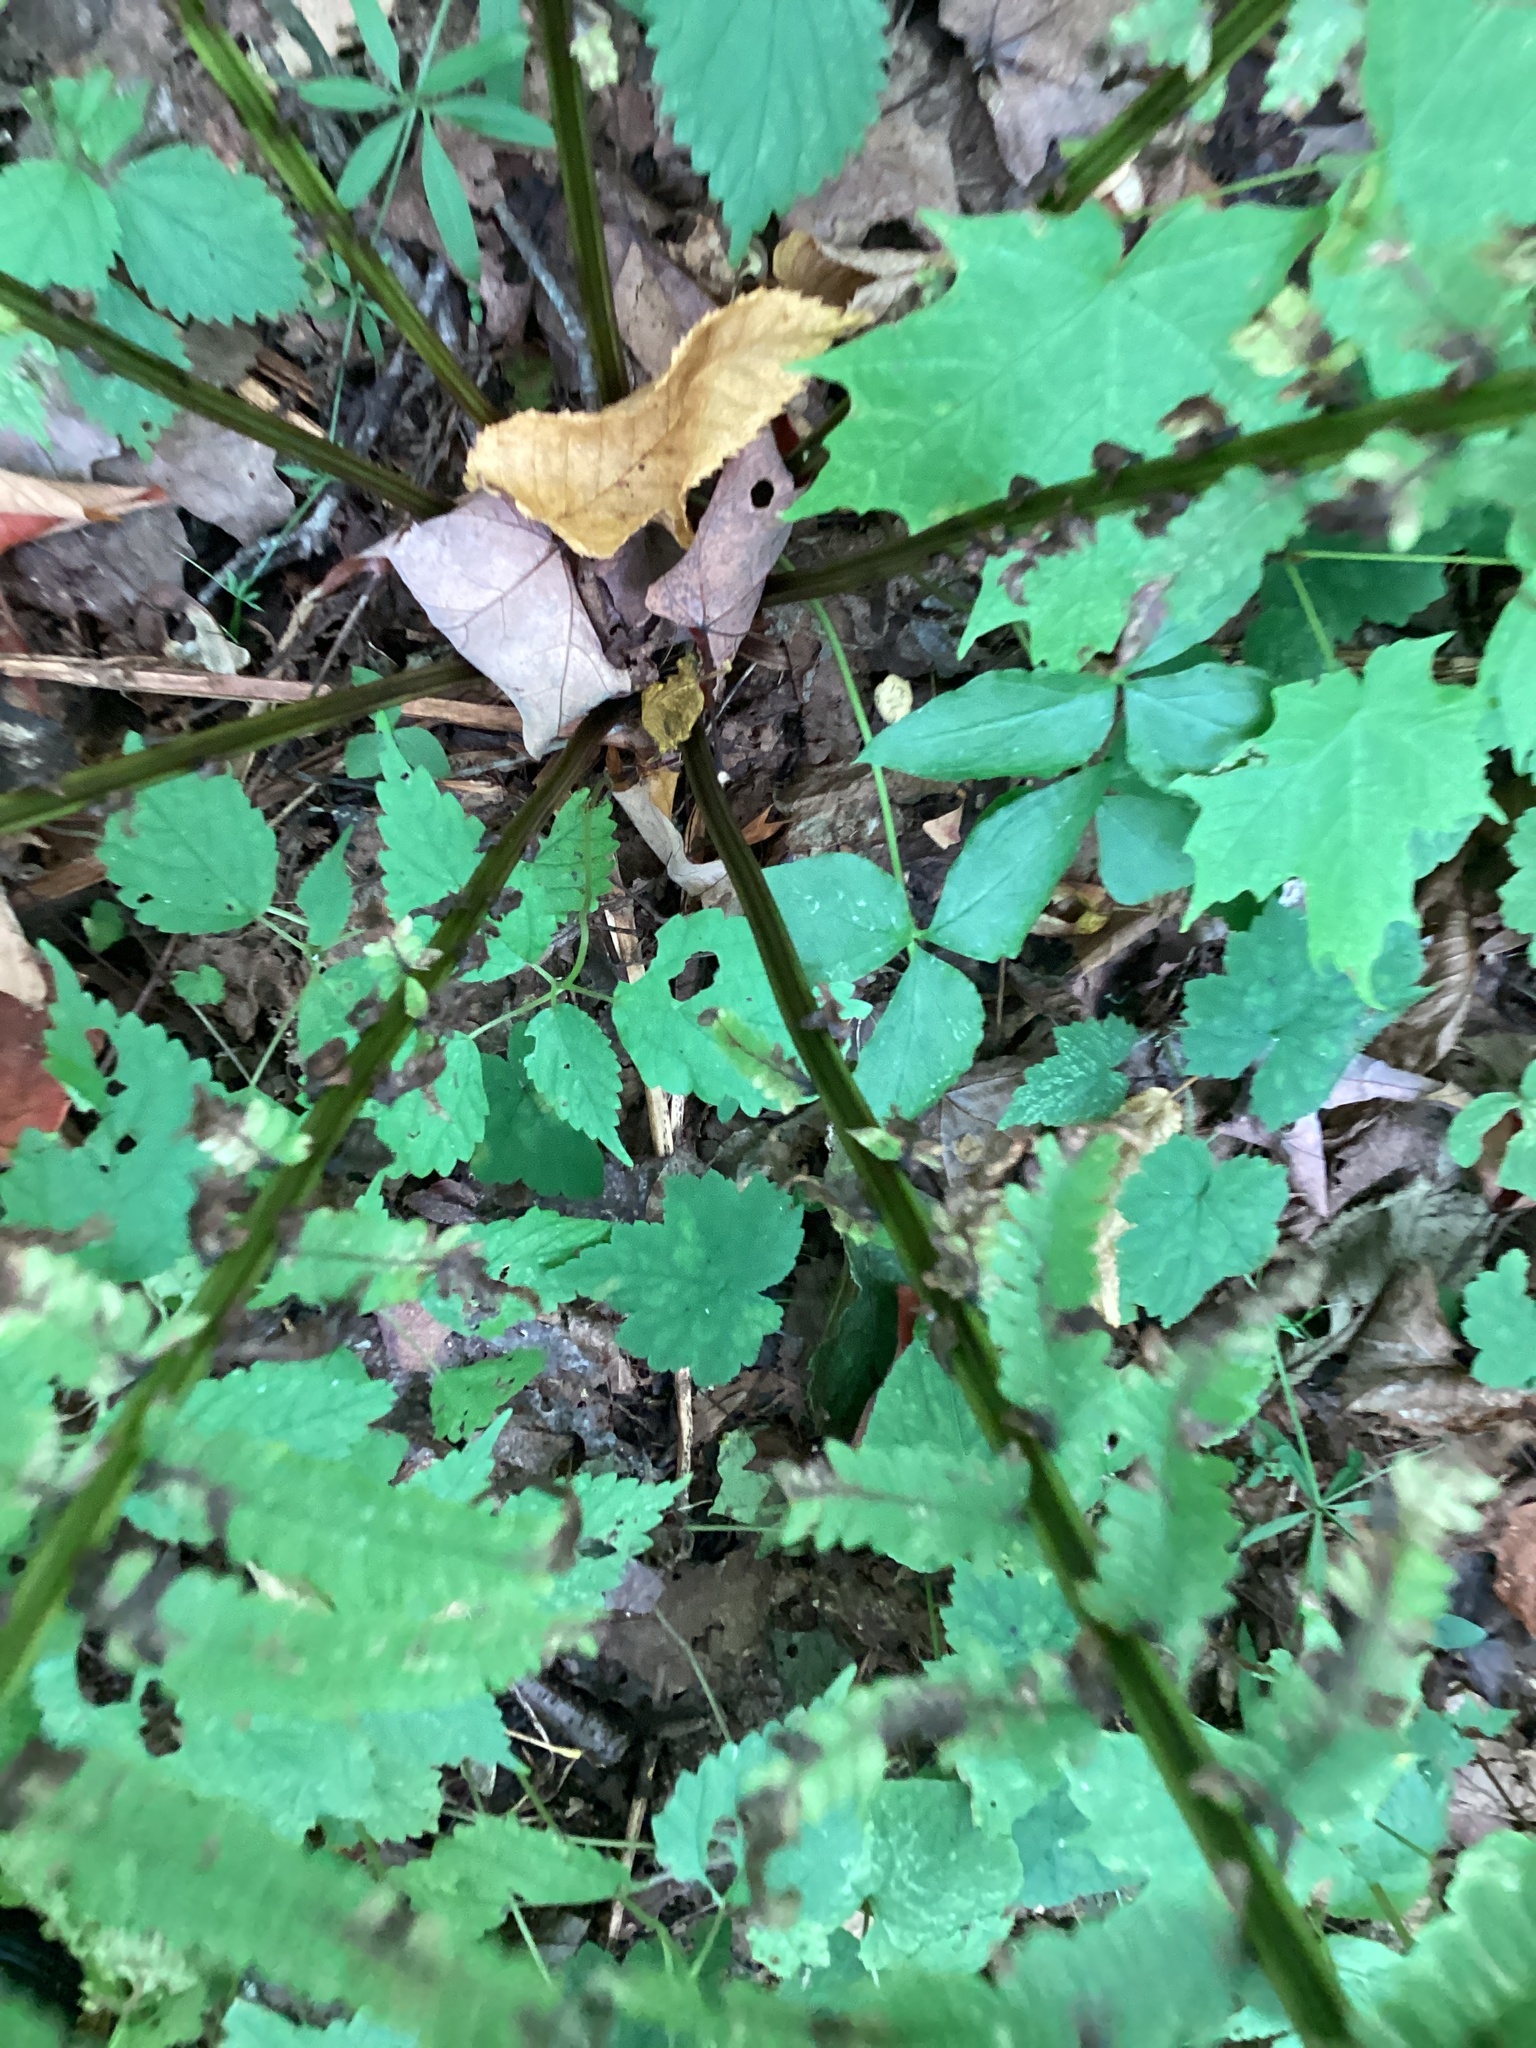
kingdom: Plantae
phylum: Tracheophyta
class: Polypodiopsida
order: Polypodiales
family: Onocleaceae
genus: Matteuccia
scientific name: Matteuccia struthiopteris
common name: Ostrich fern
